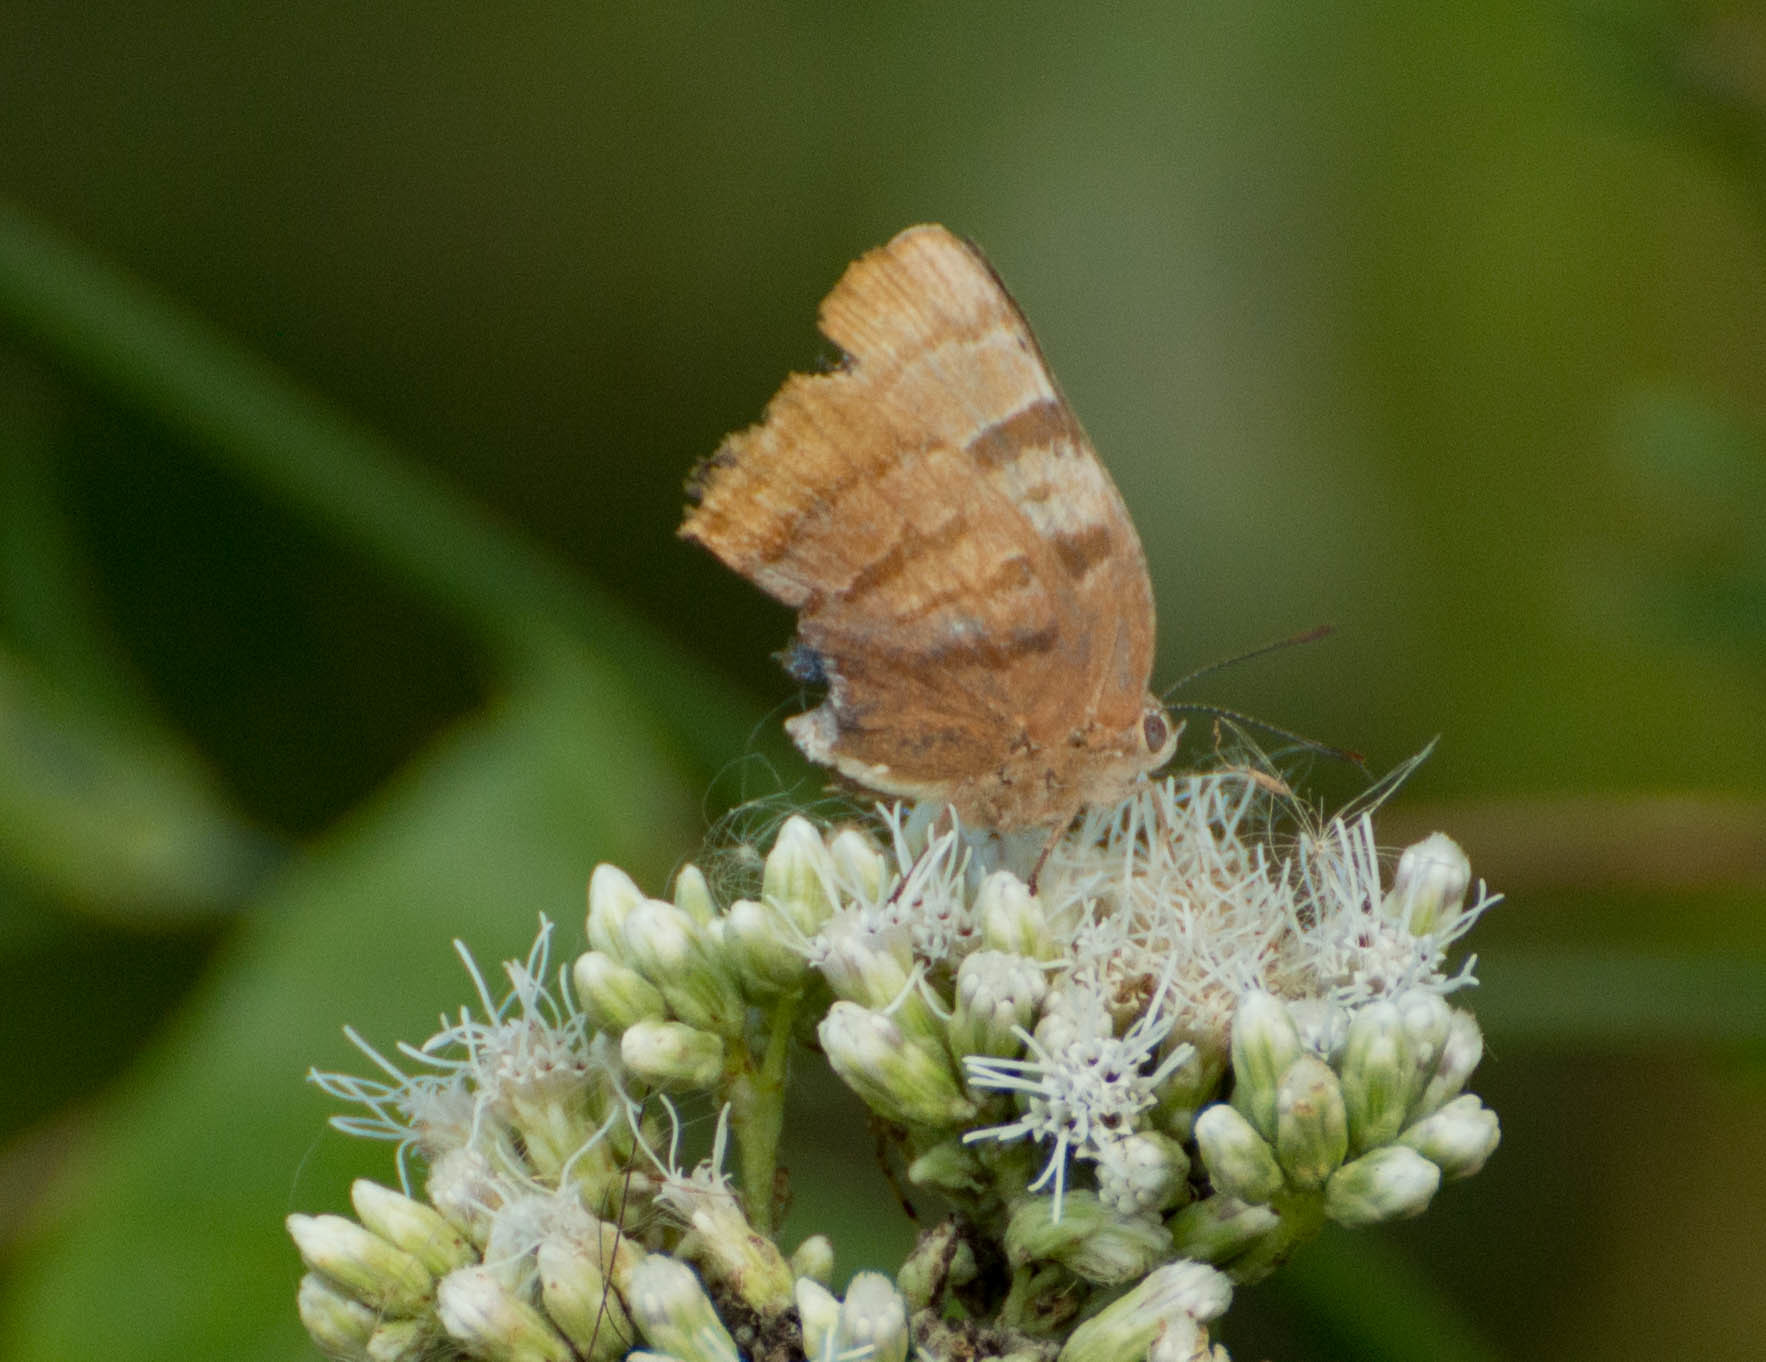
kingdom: Animalia
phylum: Arthropoda
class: Insecta
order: Lepidoptera
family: Lycaenidae
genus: Thecla
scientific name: Thecla marius
